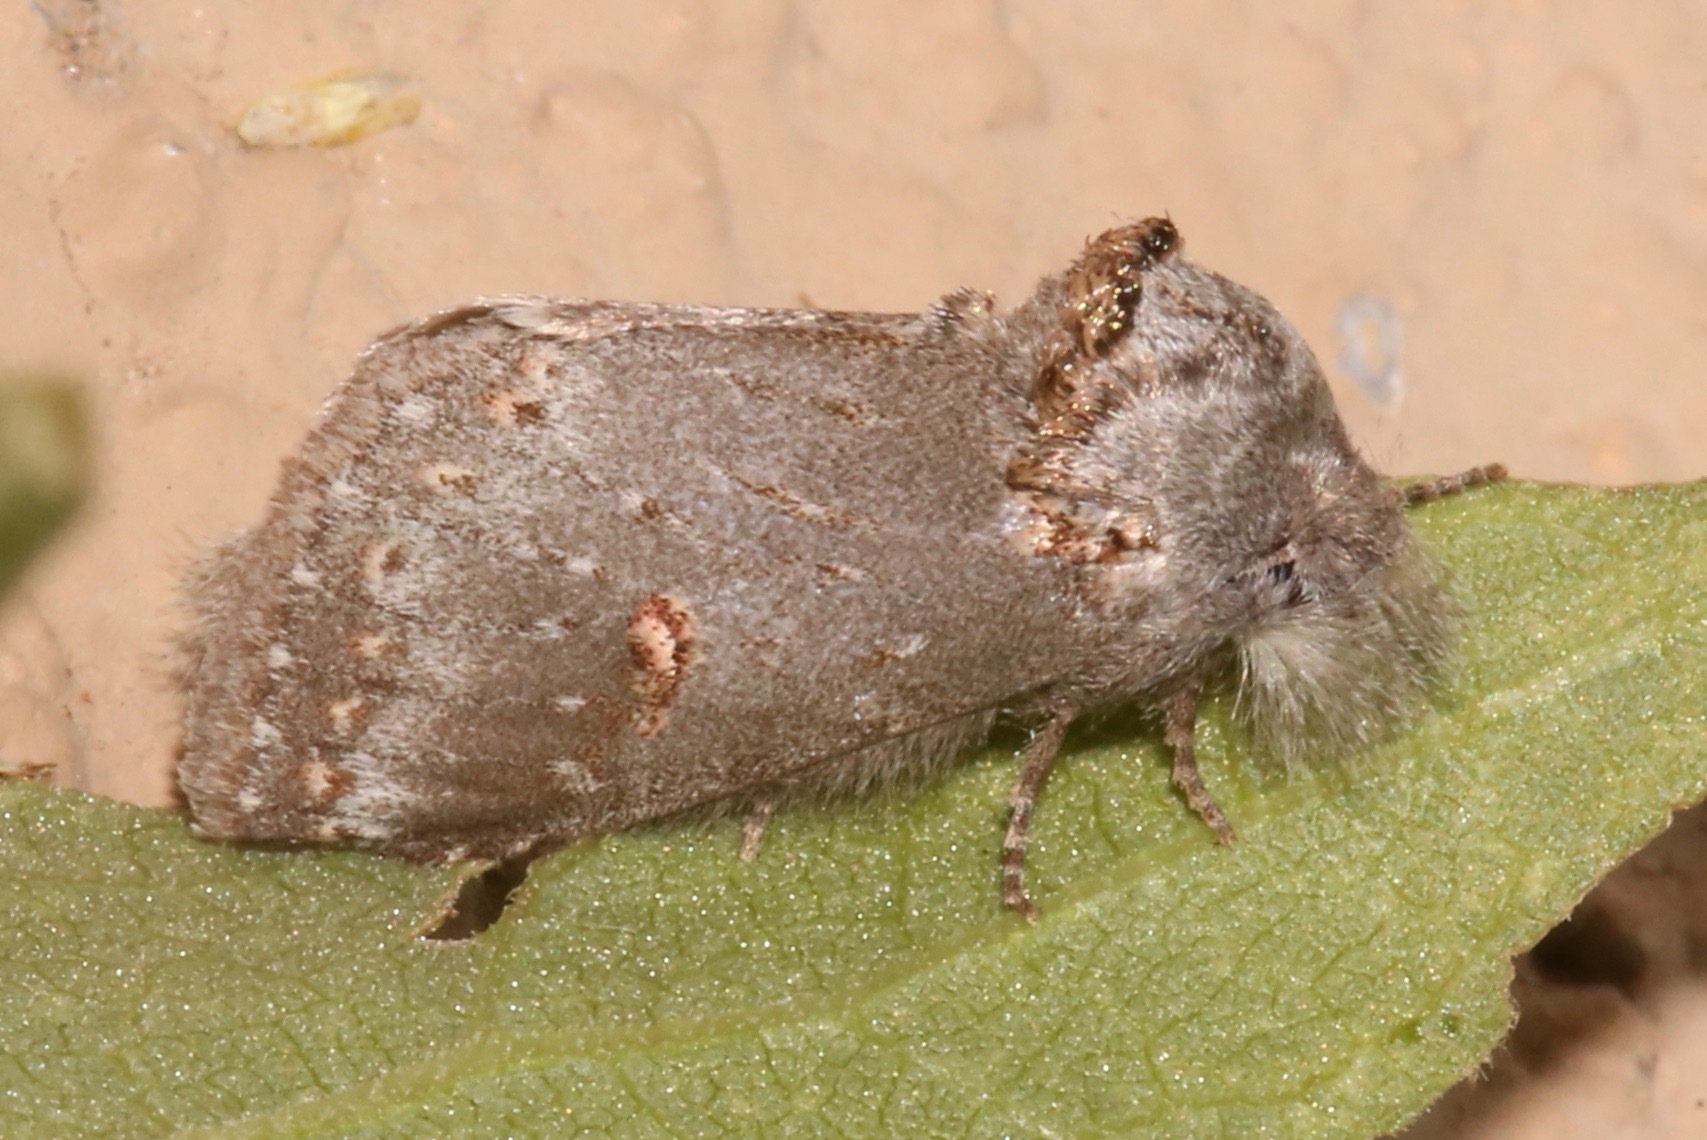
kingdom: Animalia
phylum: Arthropoda
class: Insecta
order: Lepidoptera
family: Notodontidae
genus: Theroa
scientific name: Theroa zethus
